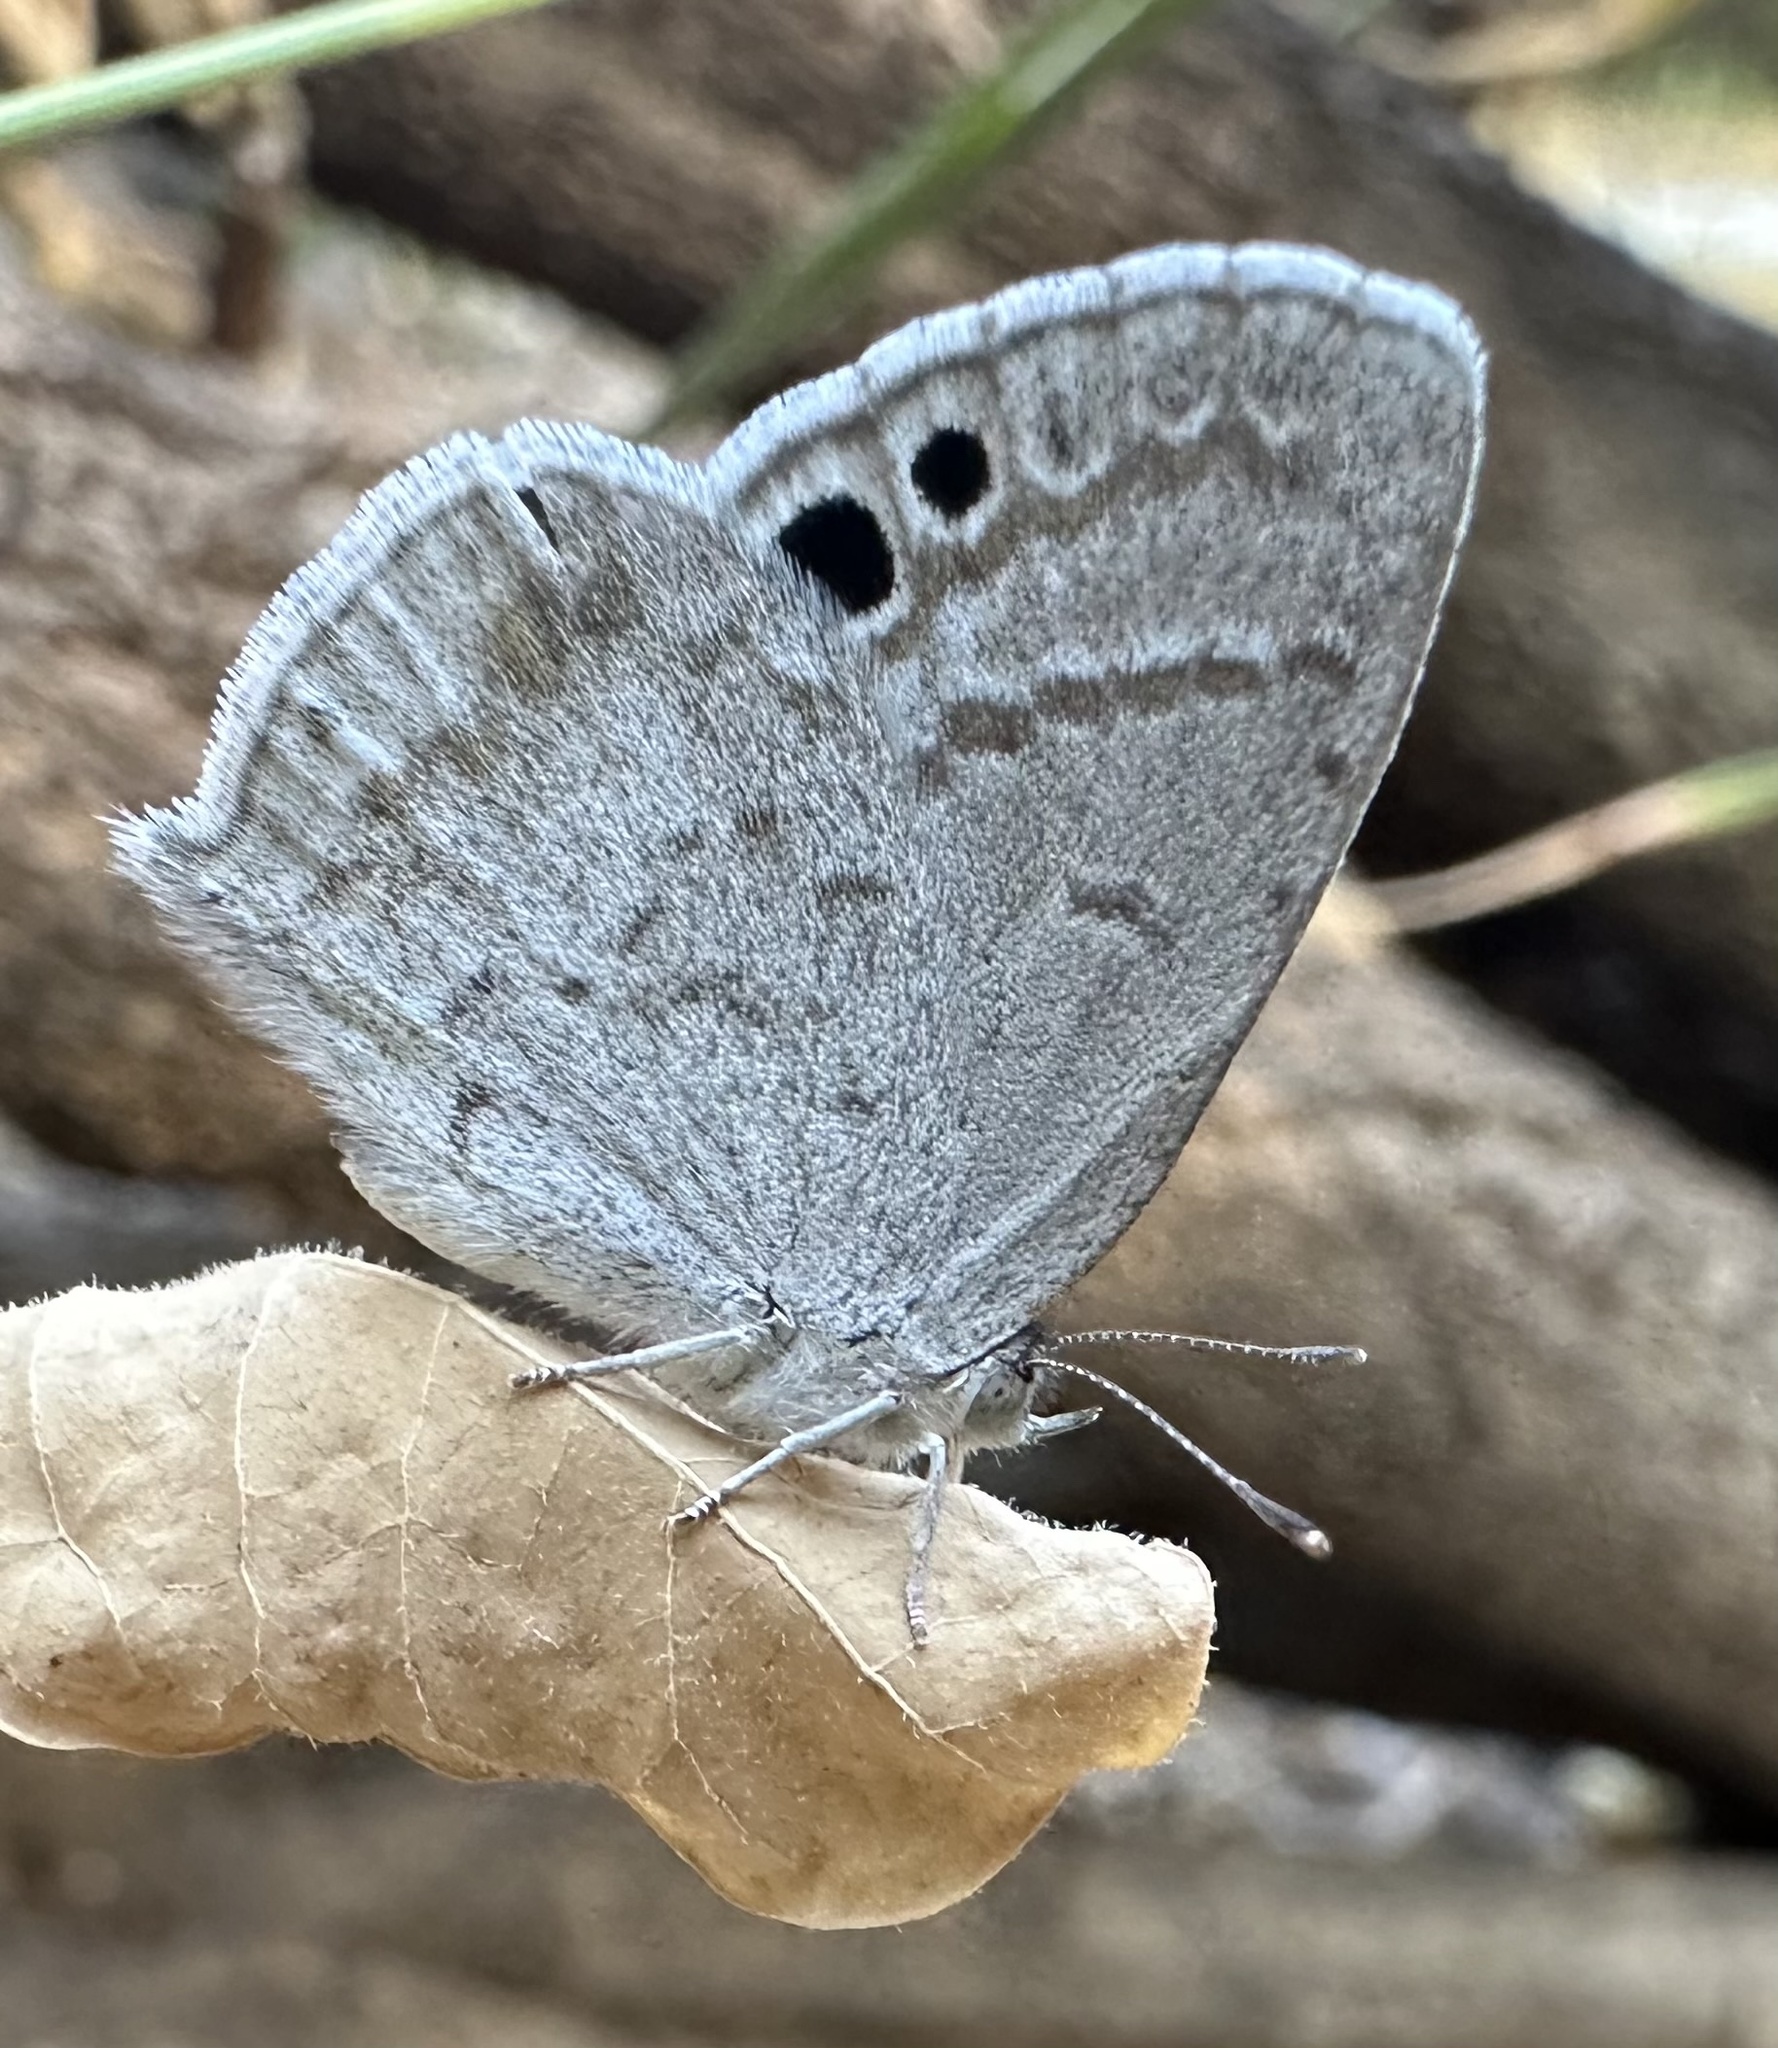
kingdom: Animalia
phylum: Arthropoda
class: Insecta
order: Lepidoptera
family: Lycaenidae
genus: Leptomyrina
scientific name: Leptomyrina henningi
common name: Henning's black-eye
